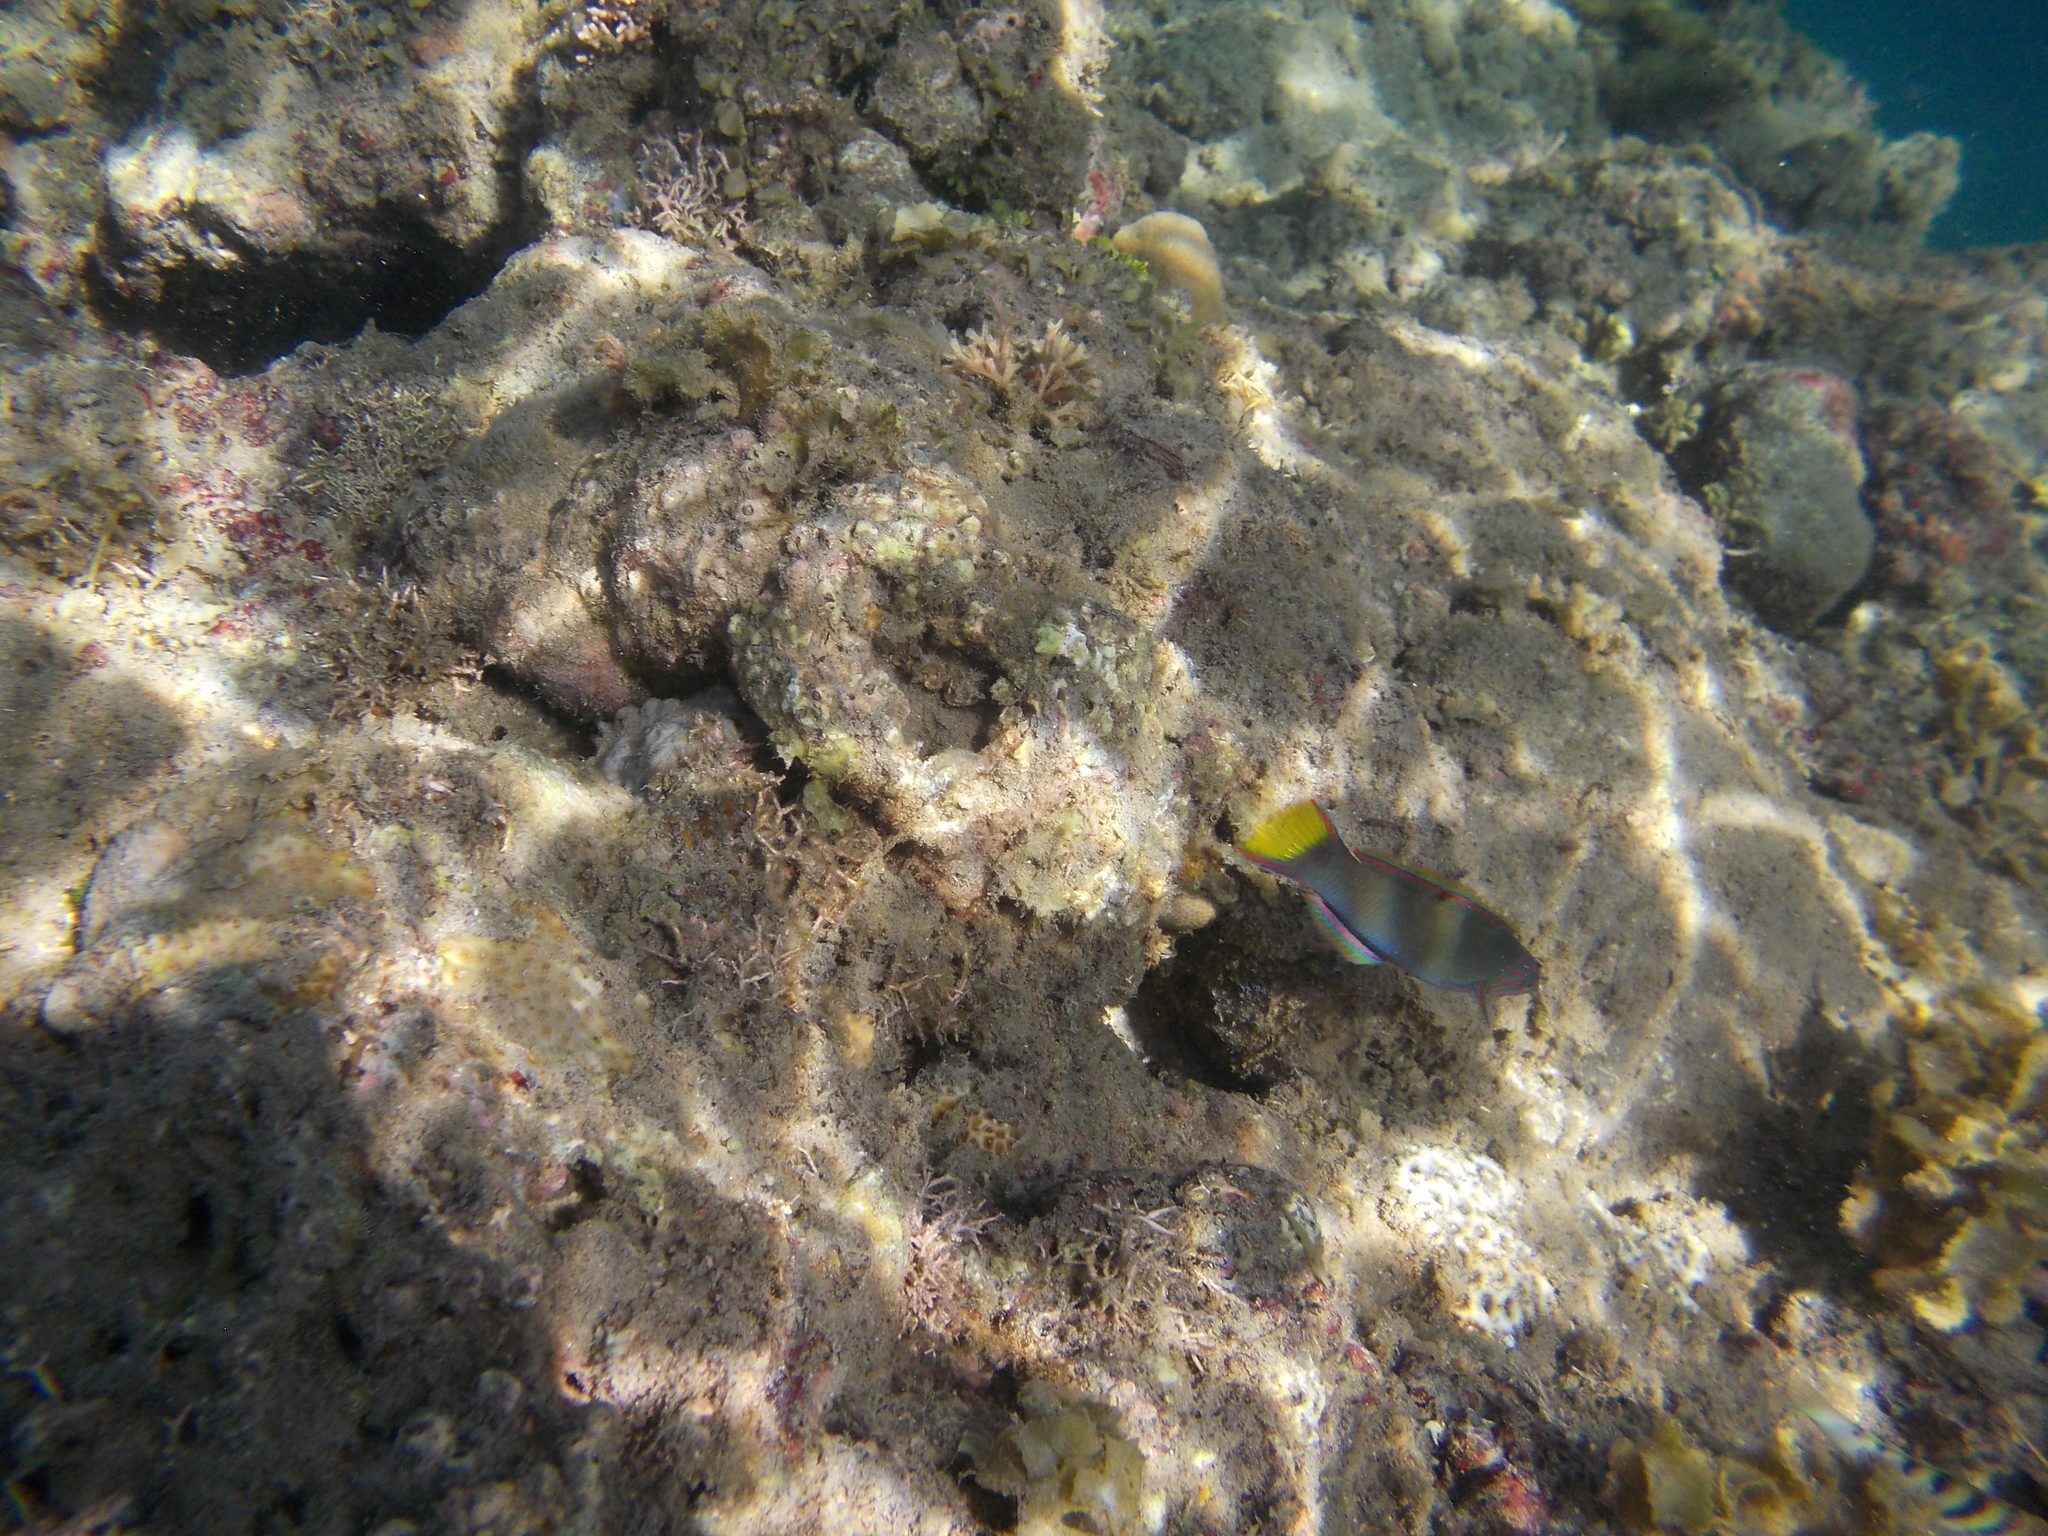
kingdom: Animalia
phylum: Chordata
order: Perciformes
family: Labridae
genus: Thalassoma
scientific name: Thalassoma lunare
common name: Blue wrasse
